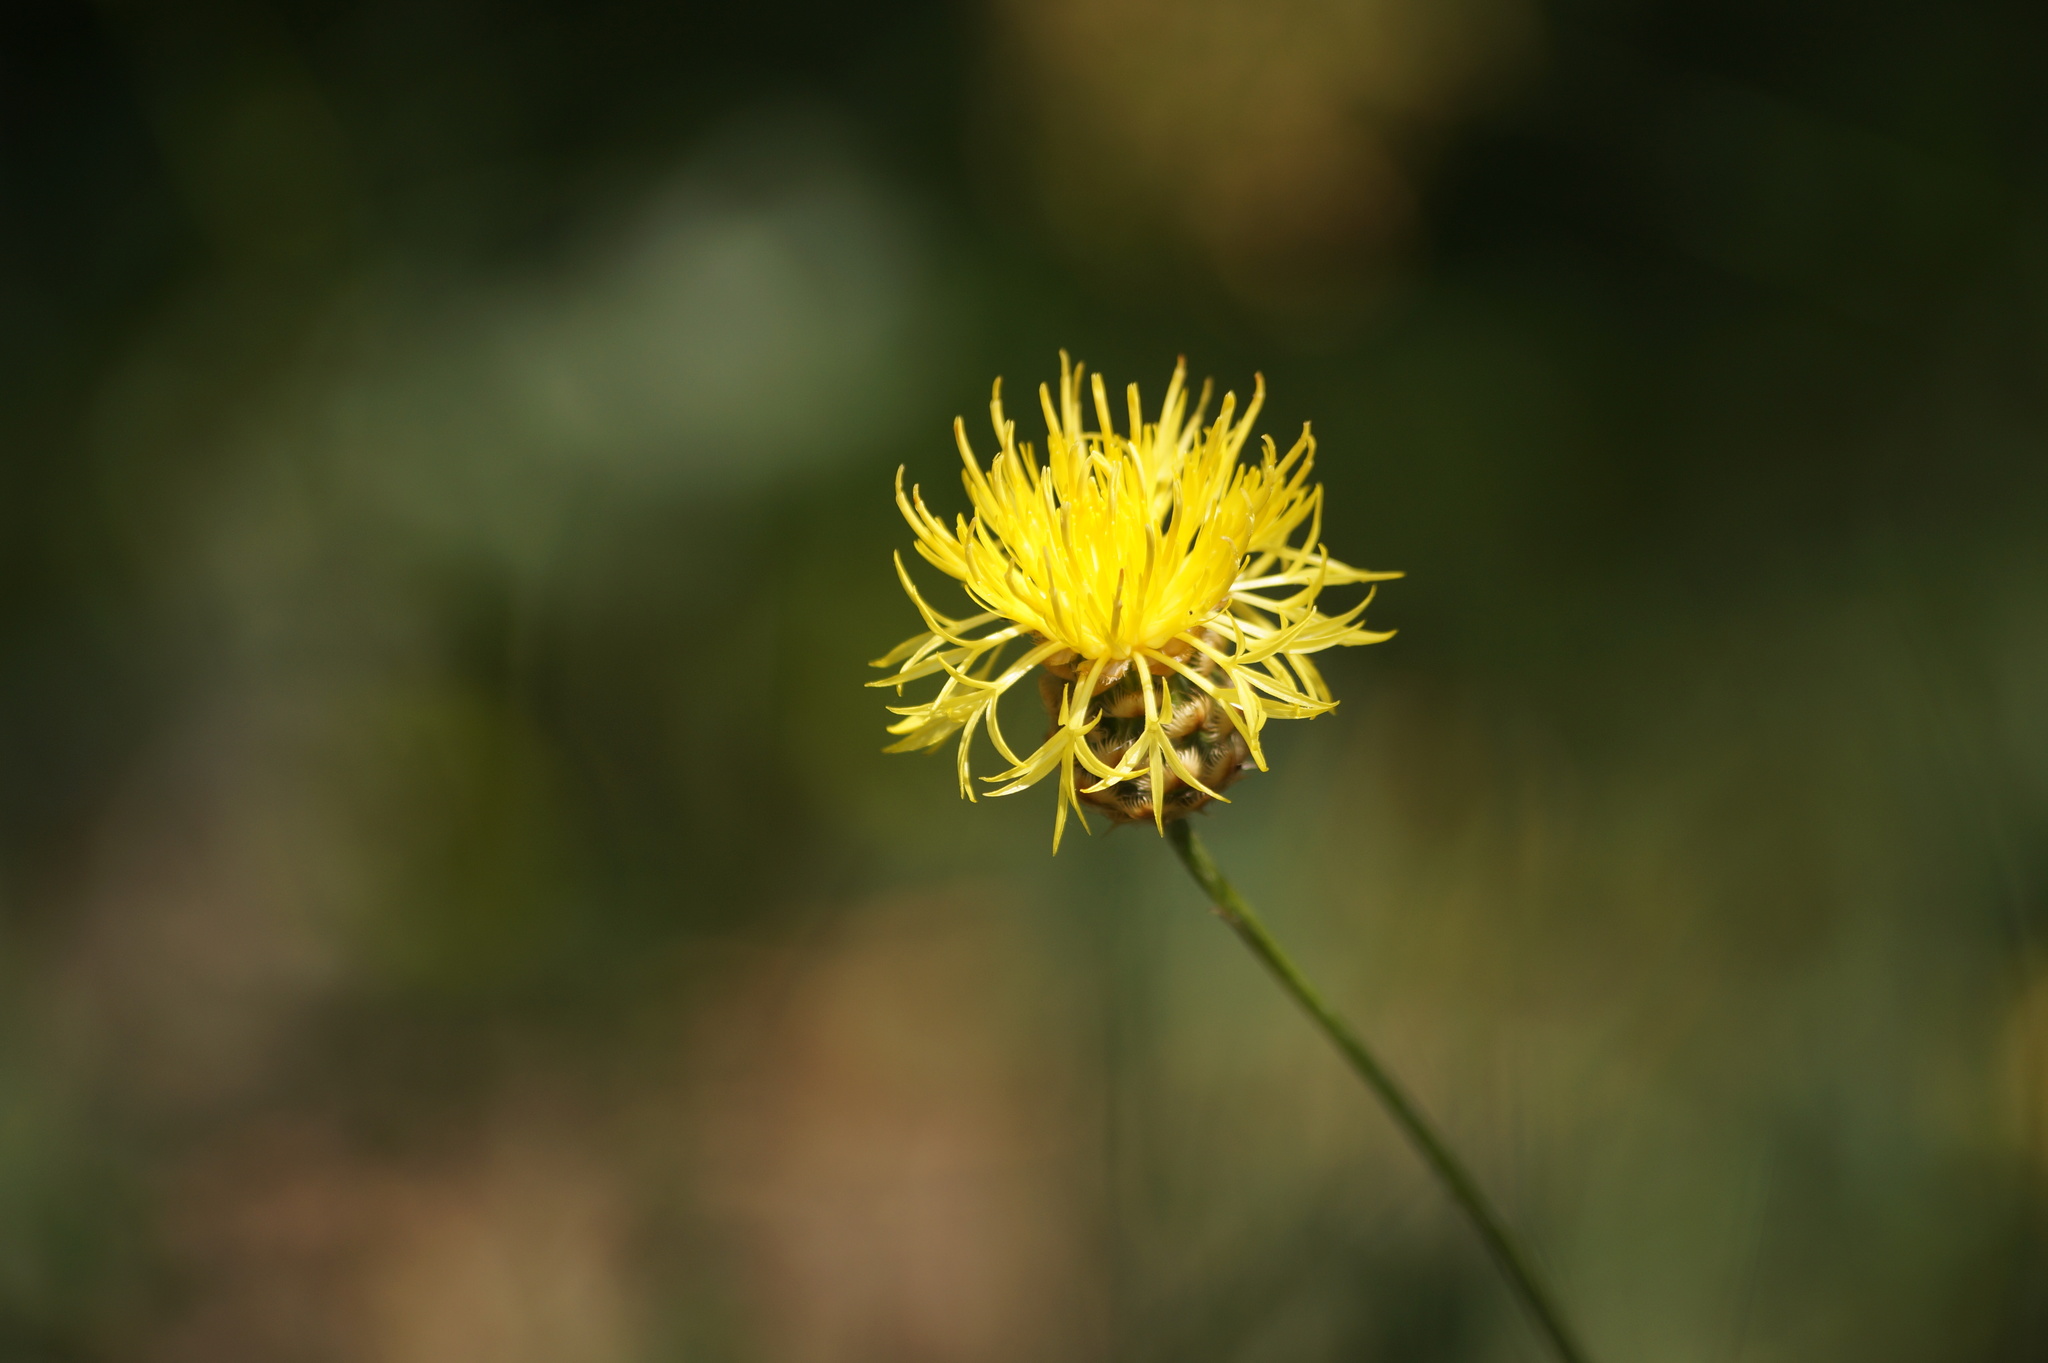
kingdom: Plantae
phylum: Tracheophyta
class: Magnoliopsida
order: Asterales
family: Asteraceae
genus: Centaurea
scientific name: Centaurea orientalis
